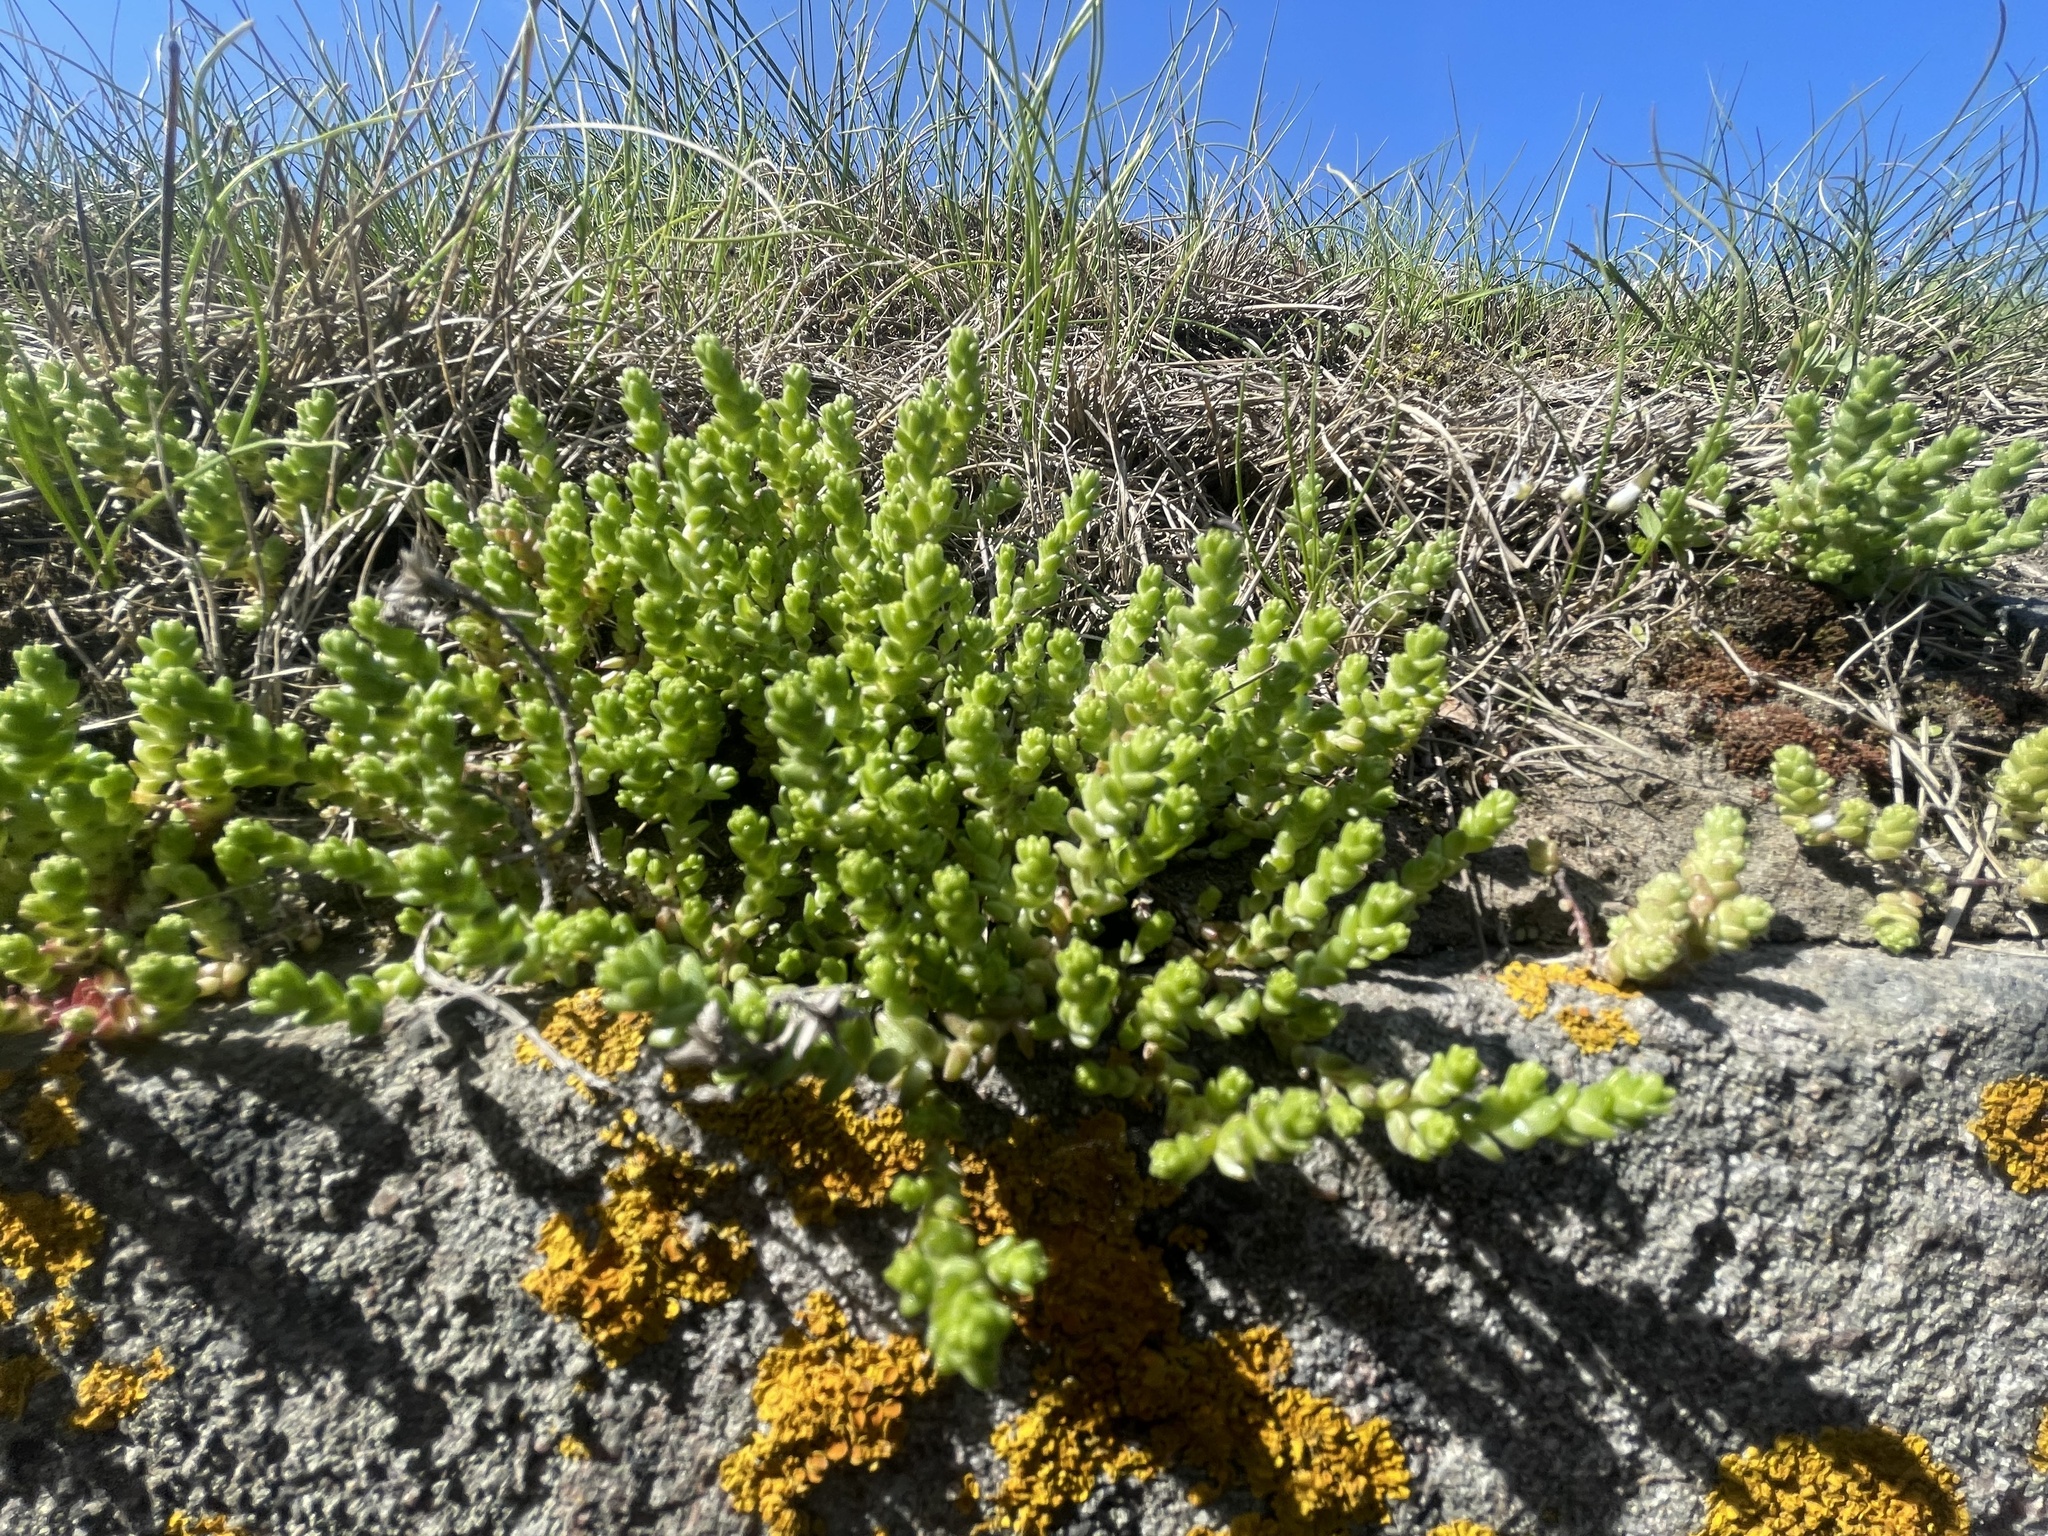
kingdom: Plantae
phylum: Tracheophyta
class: Magnoliopsida
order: Saxifragales
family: Crassulaceae
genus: Sedum
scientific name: Sedum acre
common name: Biting stonecrop
